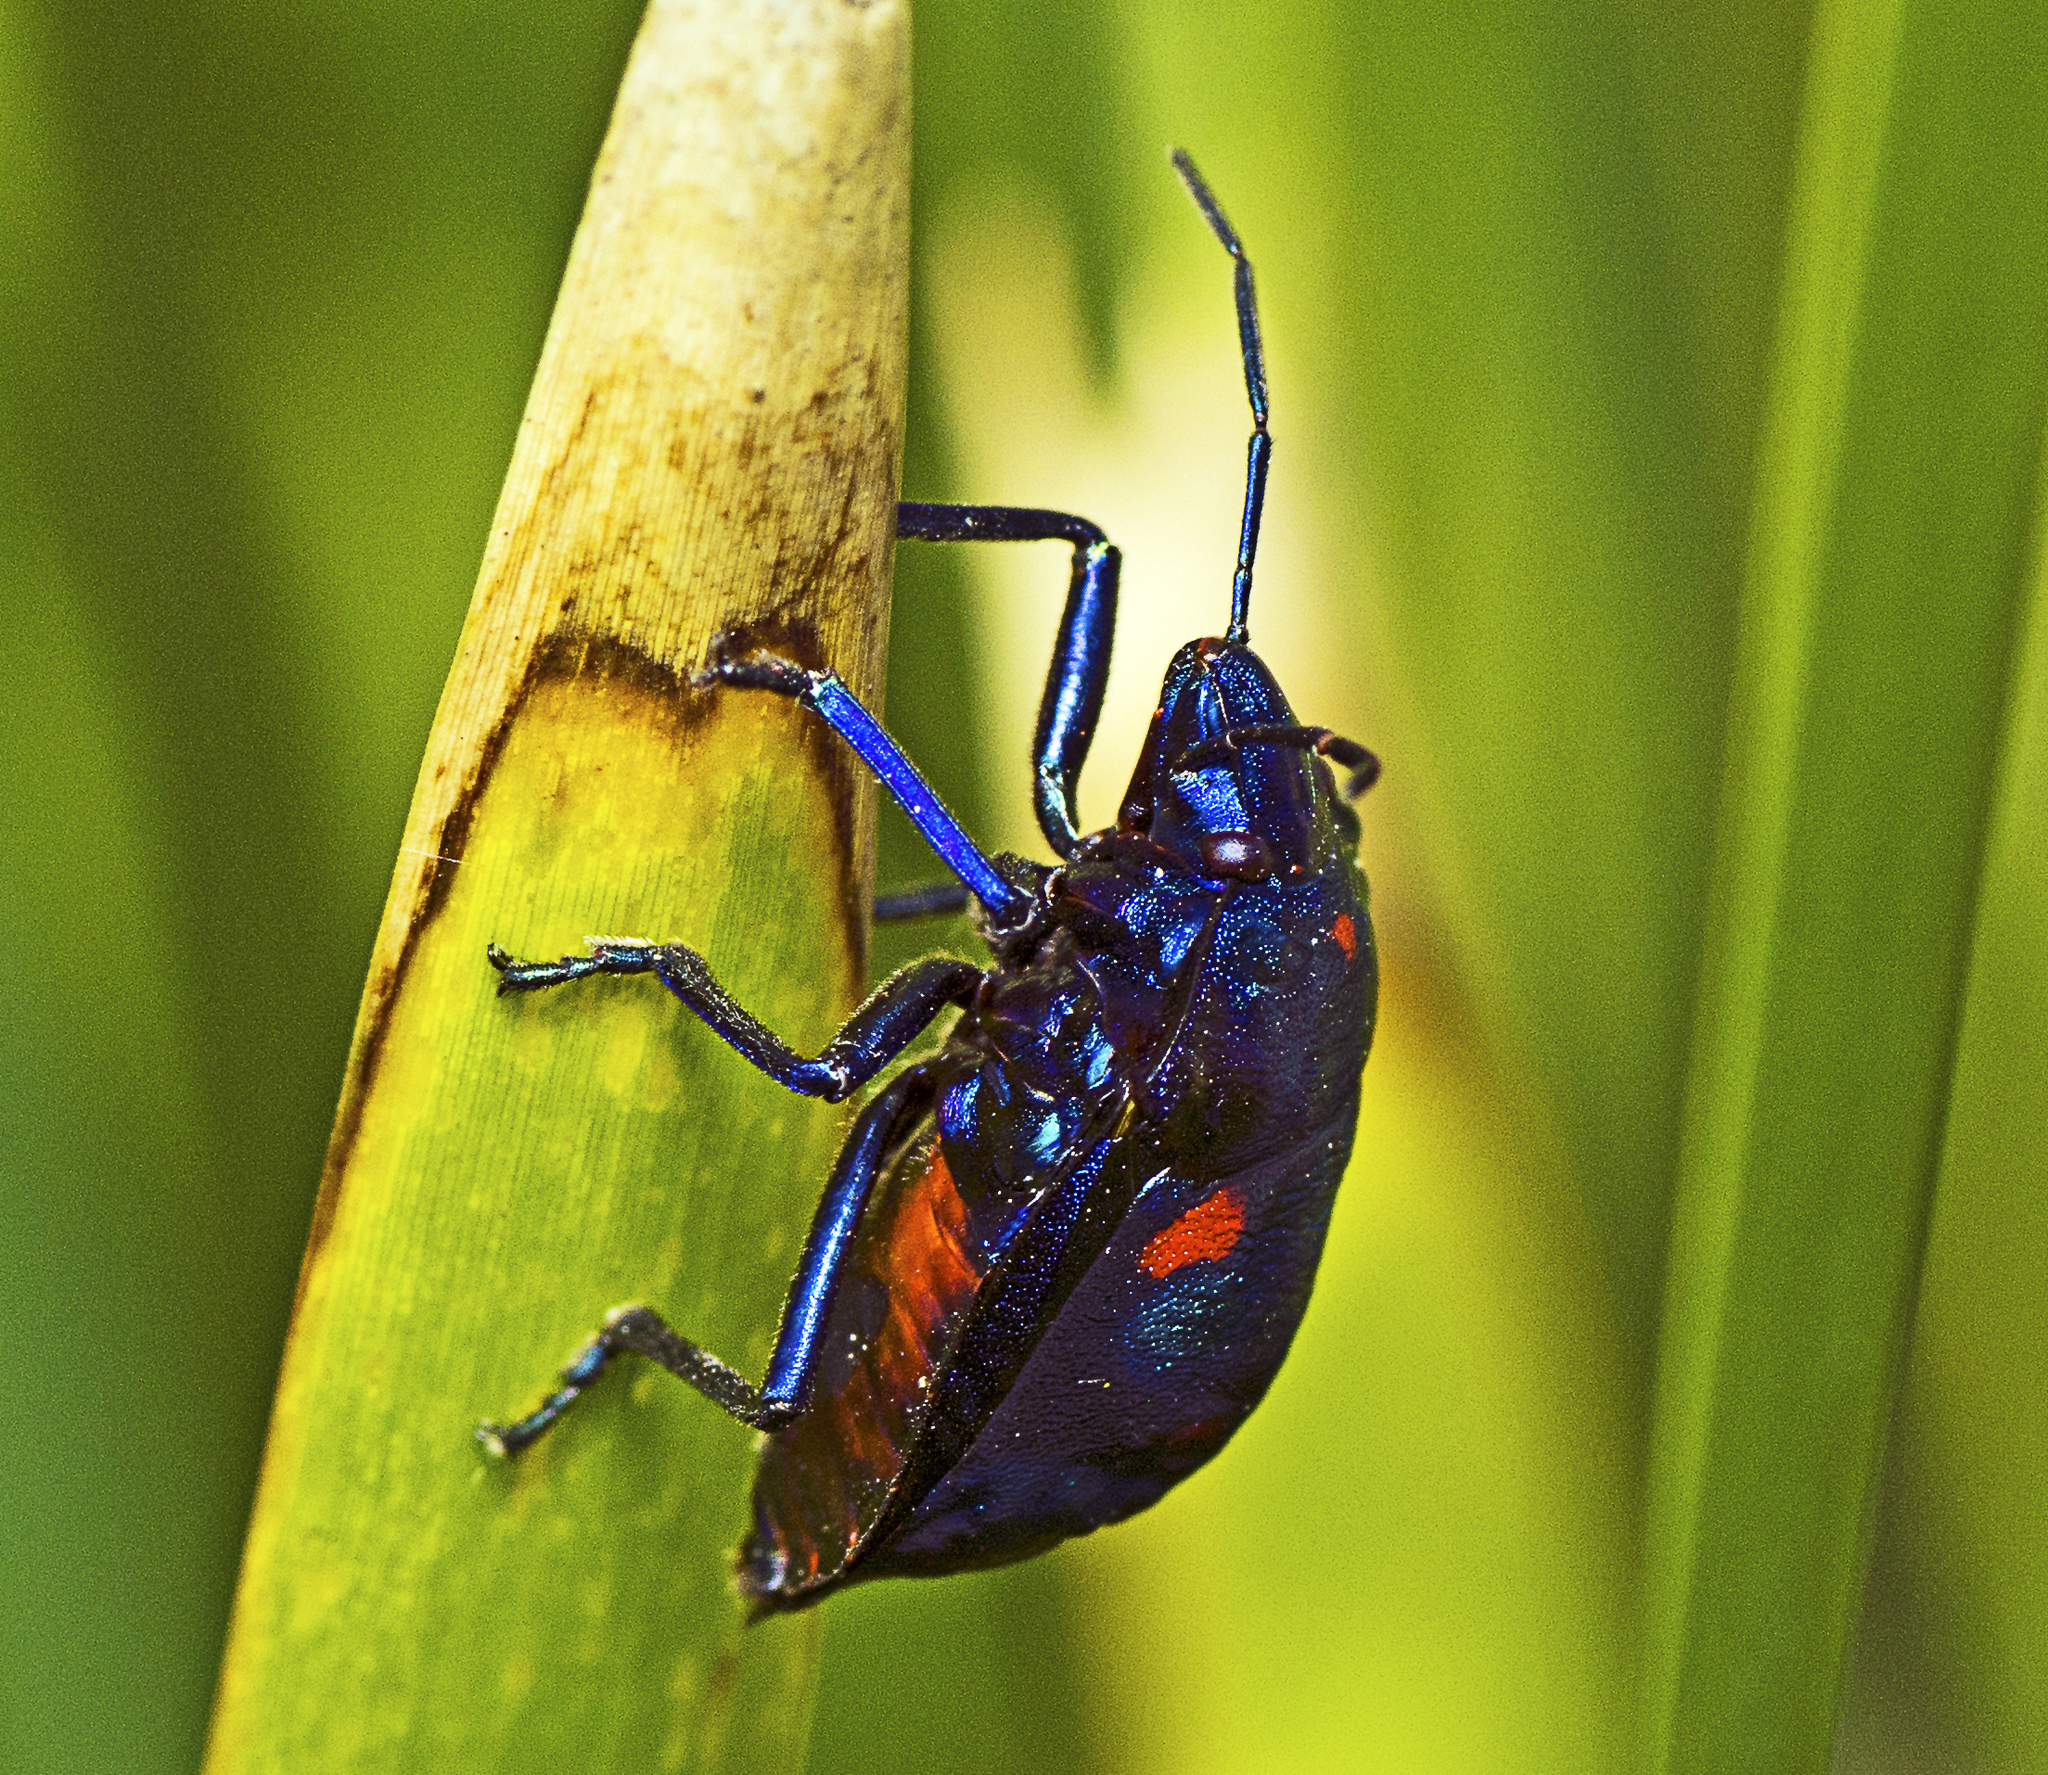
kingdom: Animalia
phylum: Arthropoda
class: Insecta
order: Hemiptera
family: Scutelleridae
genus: Tectocoris
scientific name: Tectocoris diophthalmus
